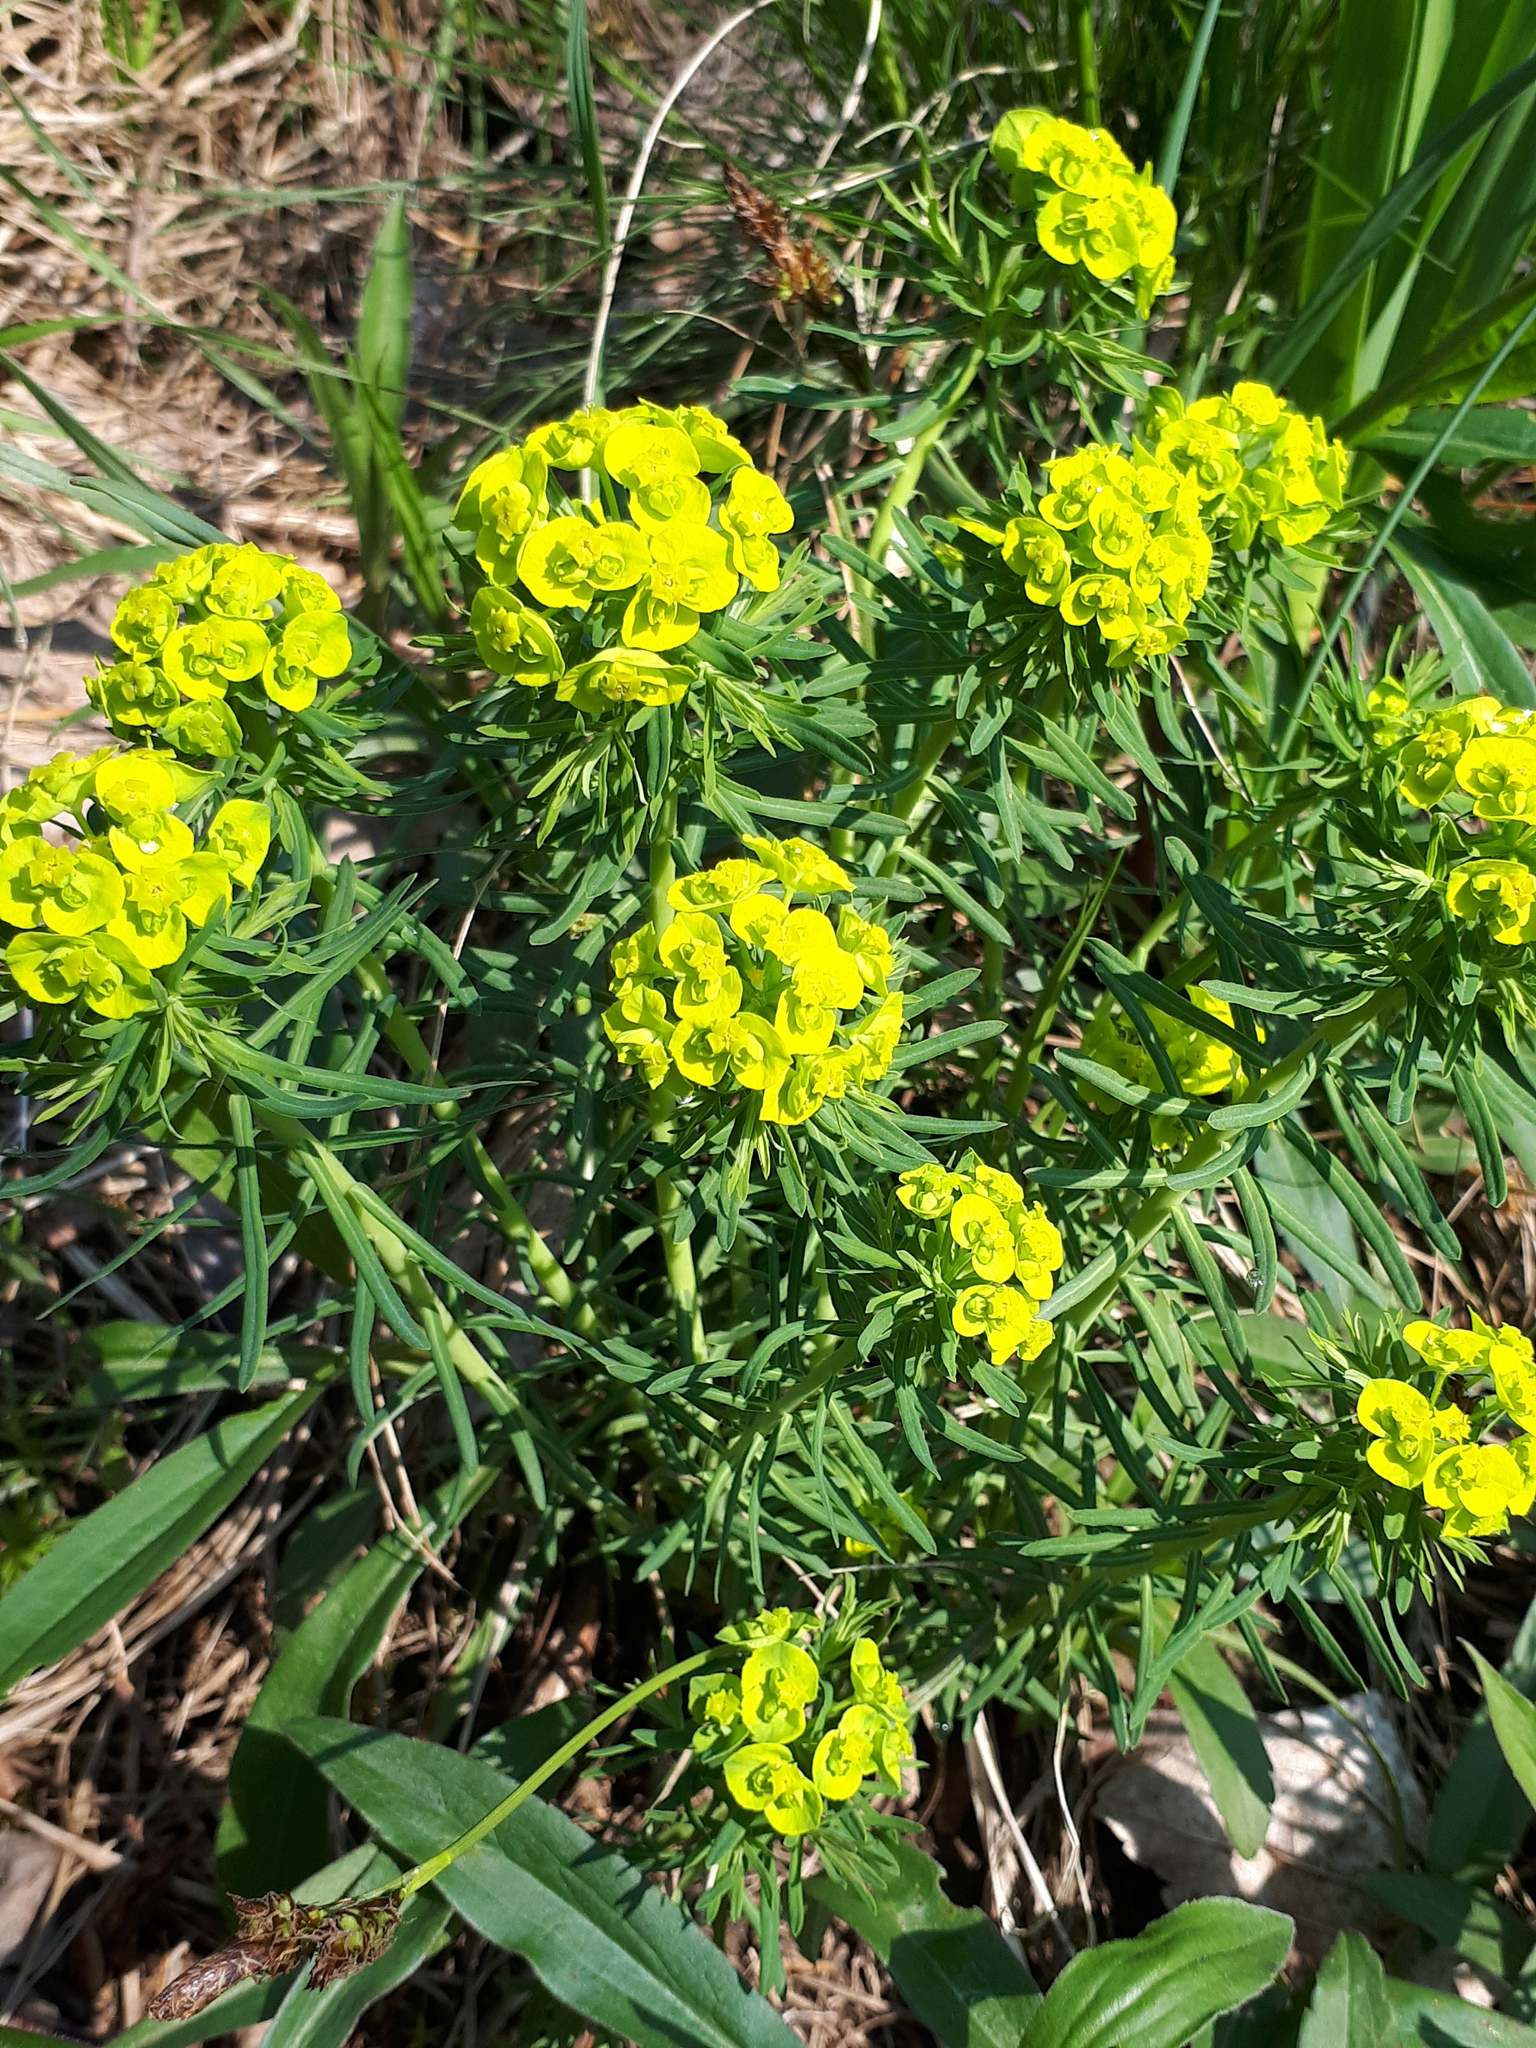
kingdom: Plantae
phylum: Tracheophyta
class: Magnoliopsida
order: Malpighiales
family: Euphorbiaceae
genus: Euphorbia
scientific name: Euphorbia cyparissias
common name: Cypress spurge
